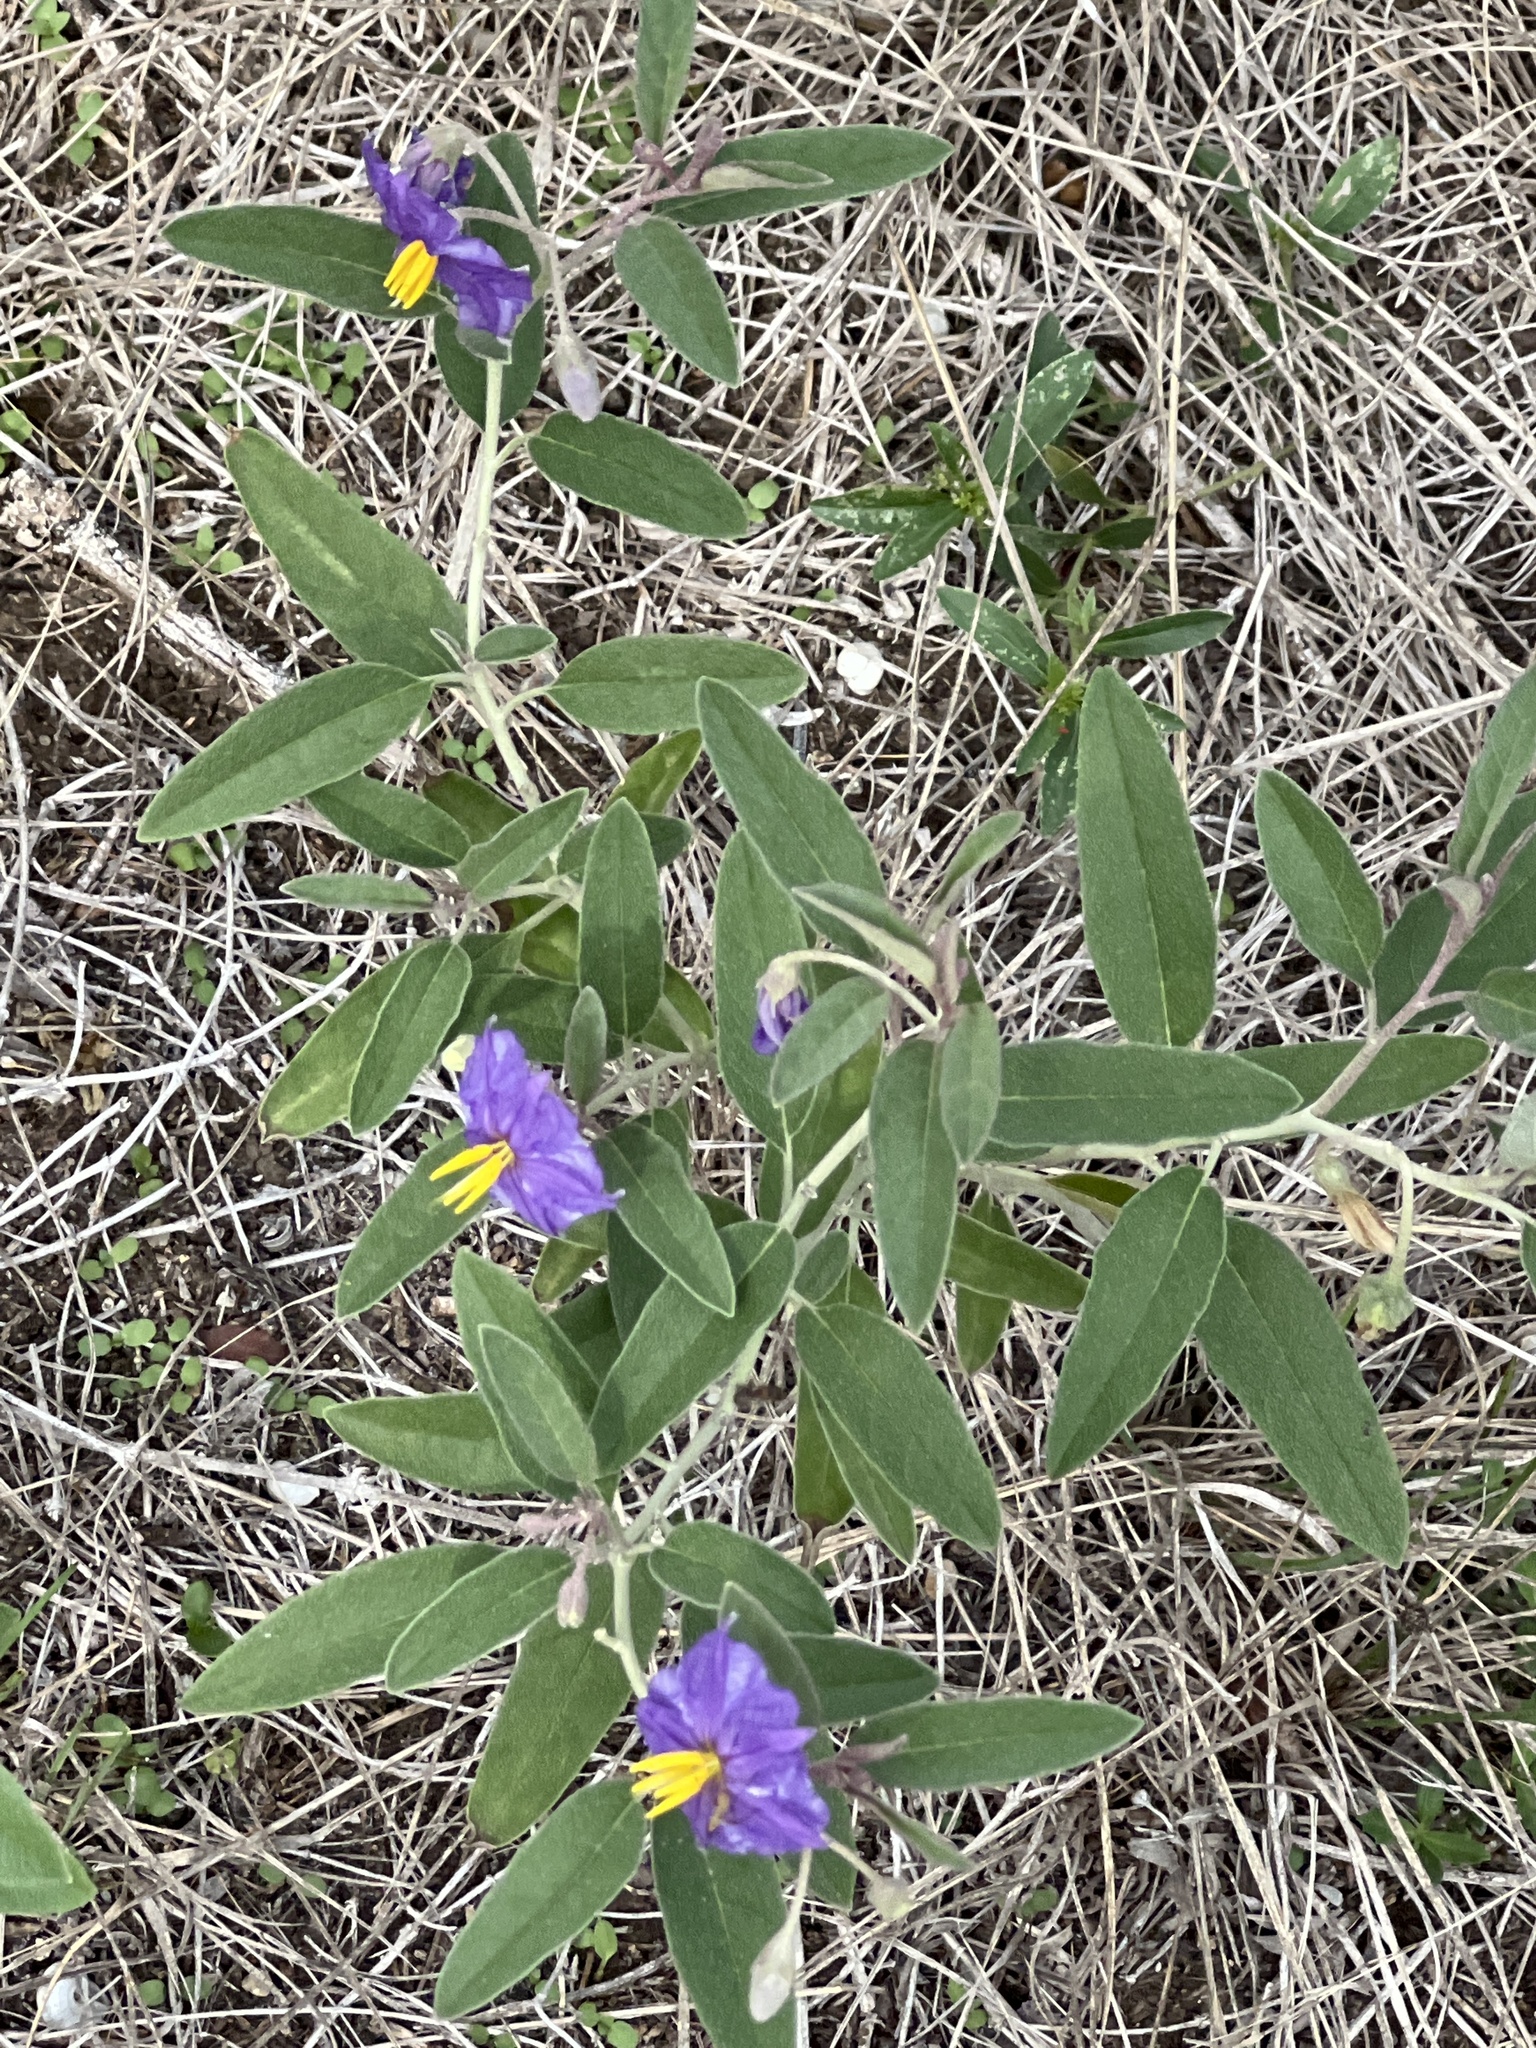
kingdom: Plantae
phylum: Tracheophyta
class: Magnoliopsida
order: Solanales
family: Solanaceae
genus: Solanum
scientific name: Solanum elaeagnifolium
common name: Silverleaf nightshade
